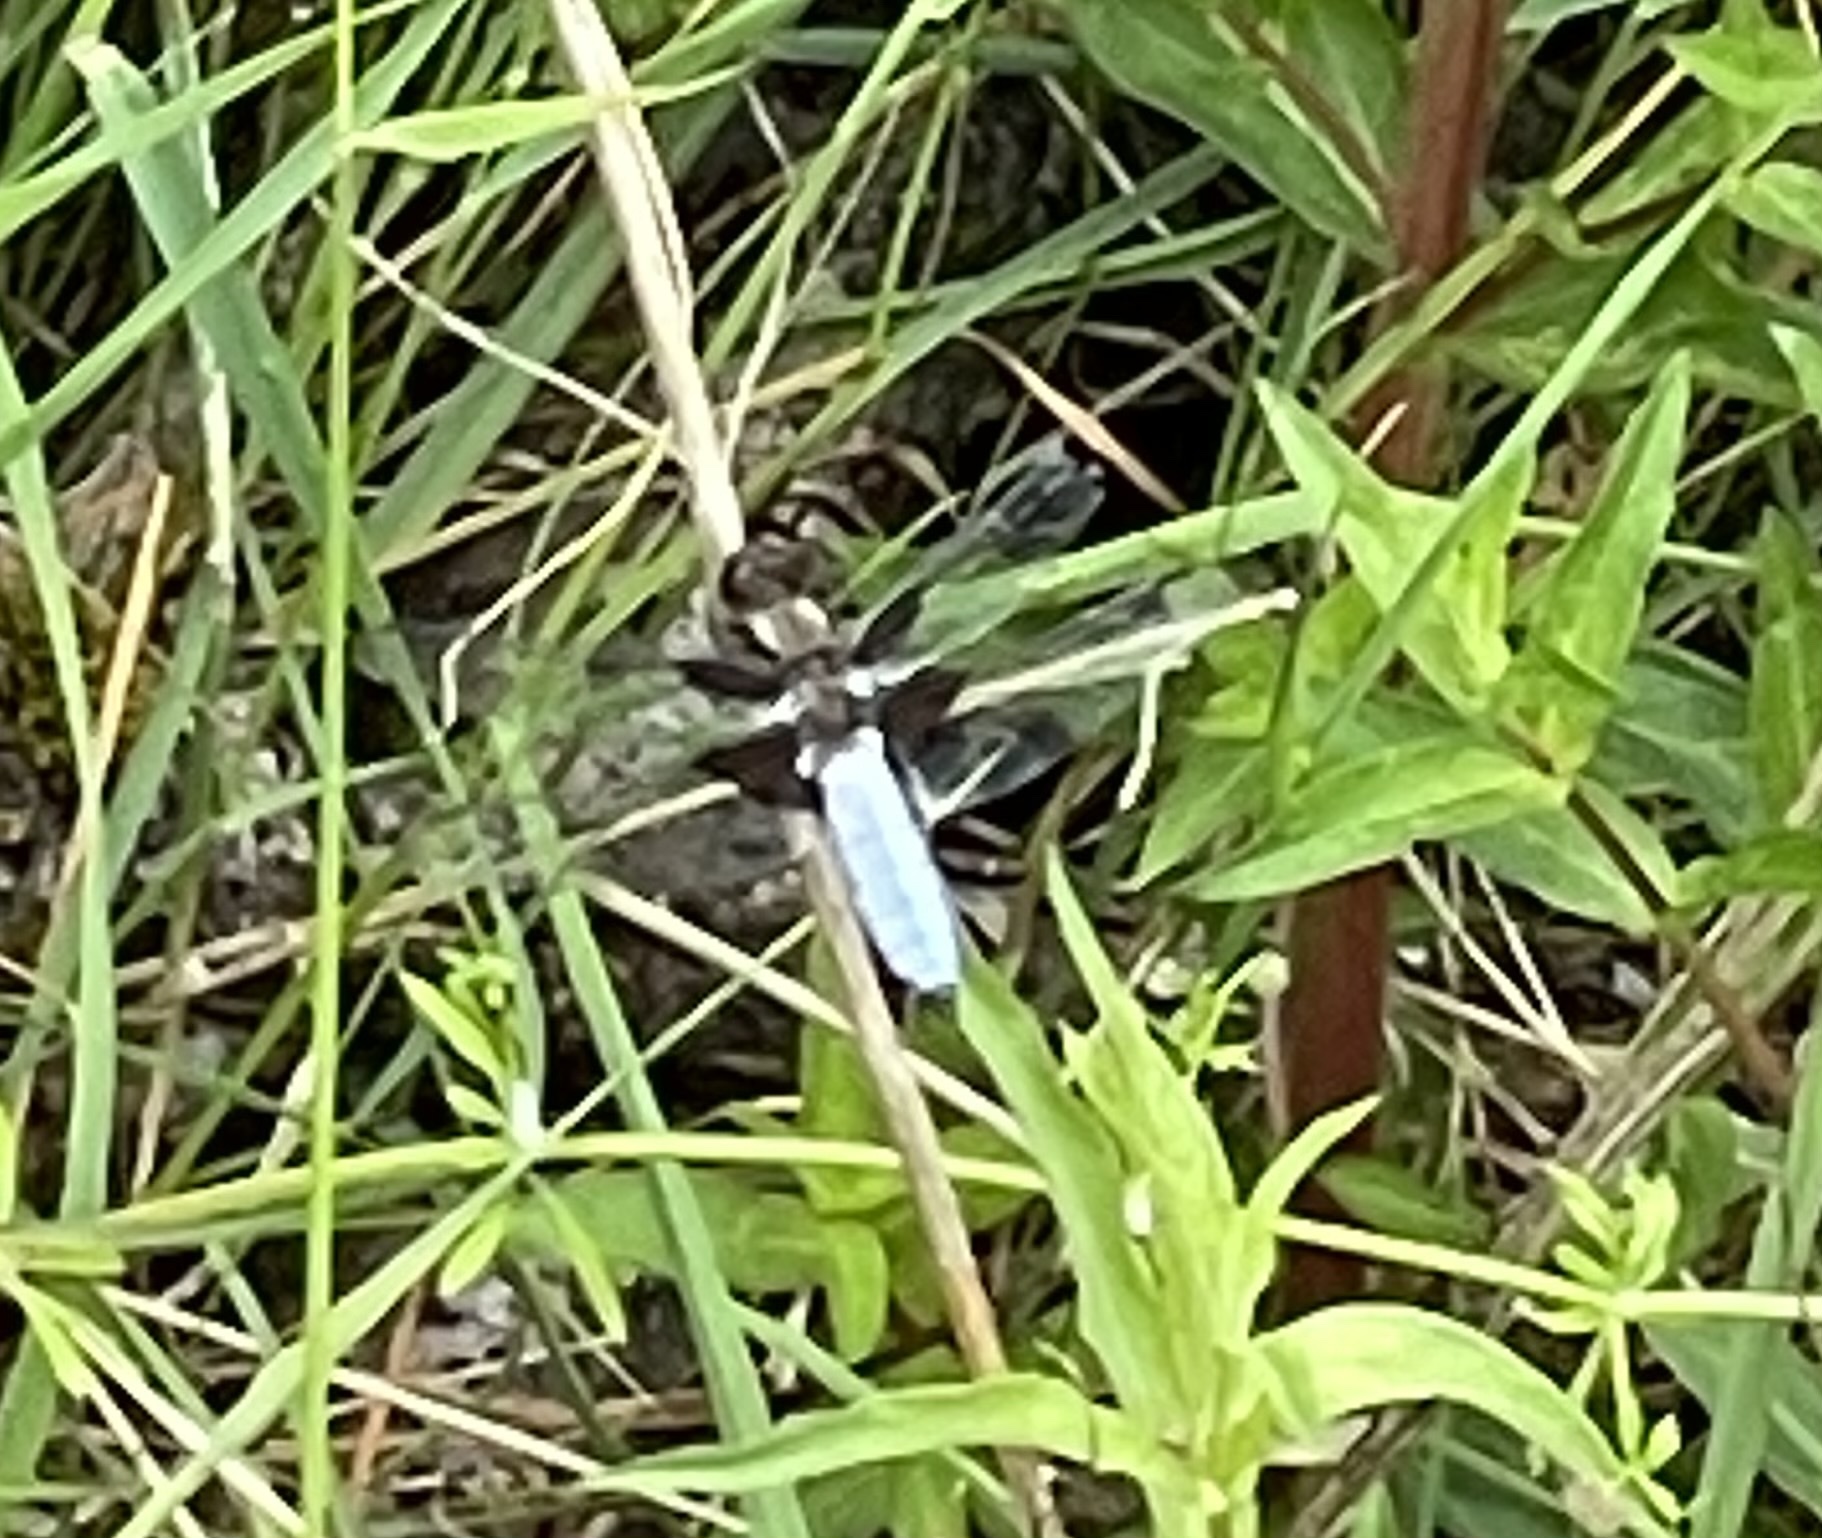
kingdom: Animalia
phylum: Arthropoda
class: Insecta
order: Odonata
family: Libellulidae
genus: Libellula
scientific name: Libellula depressa
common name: Broad-bodied chaser
